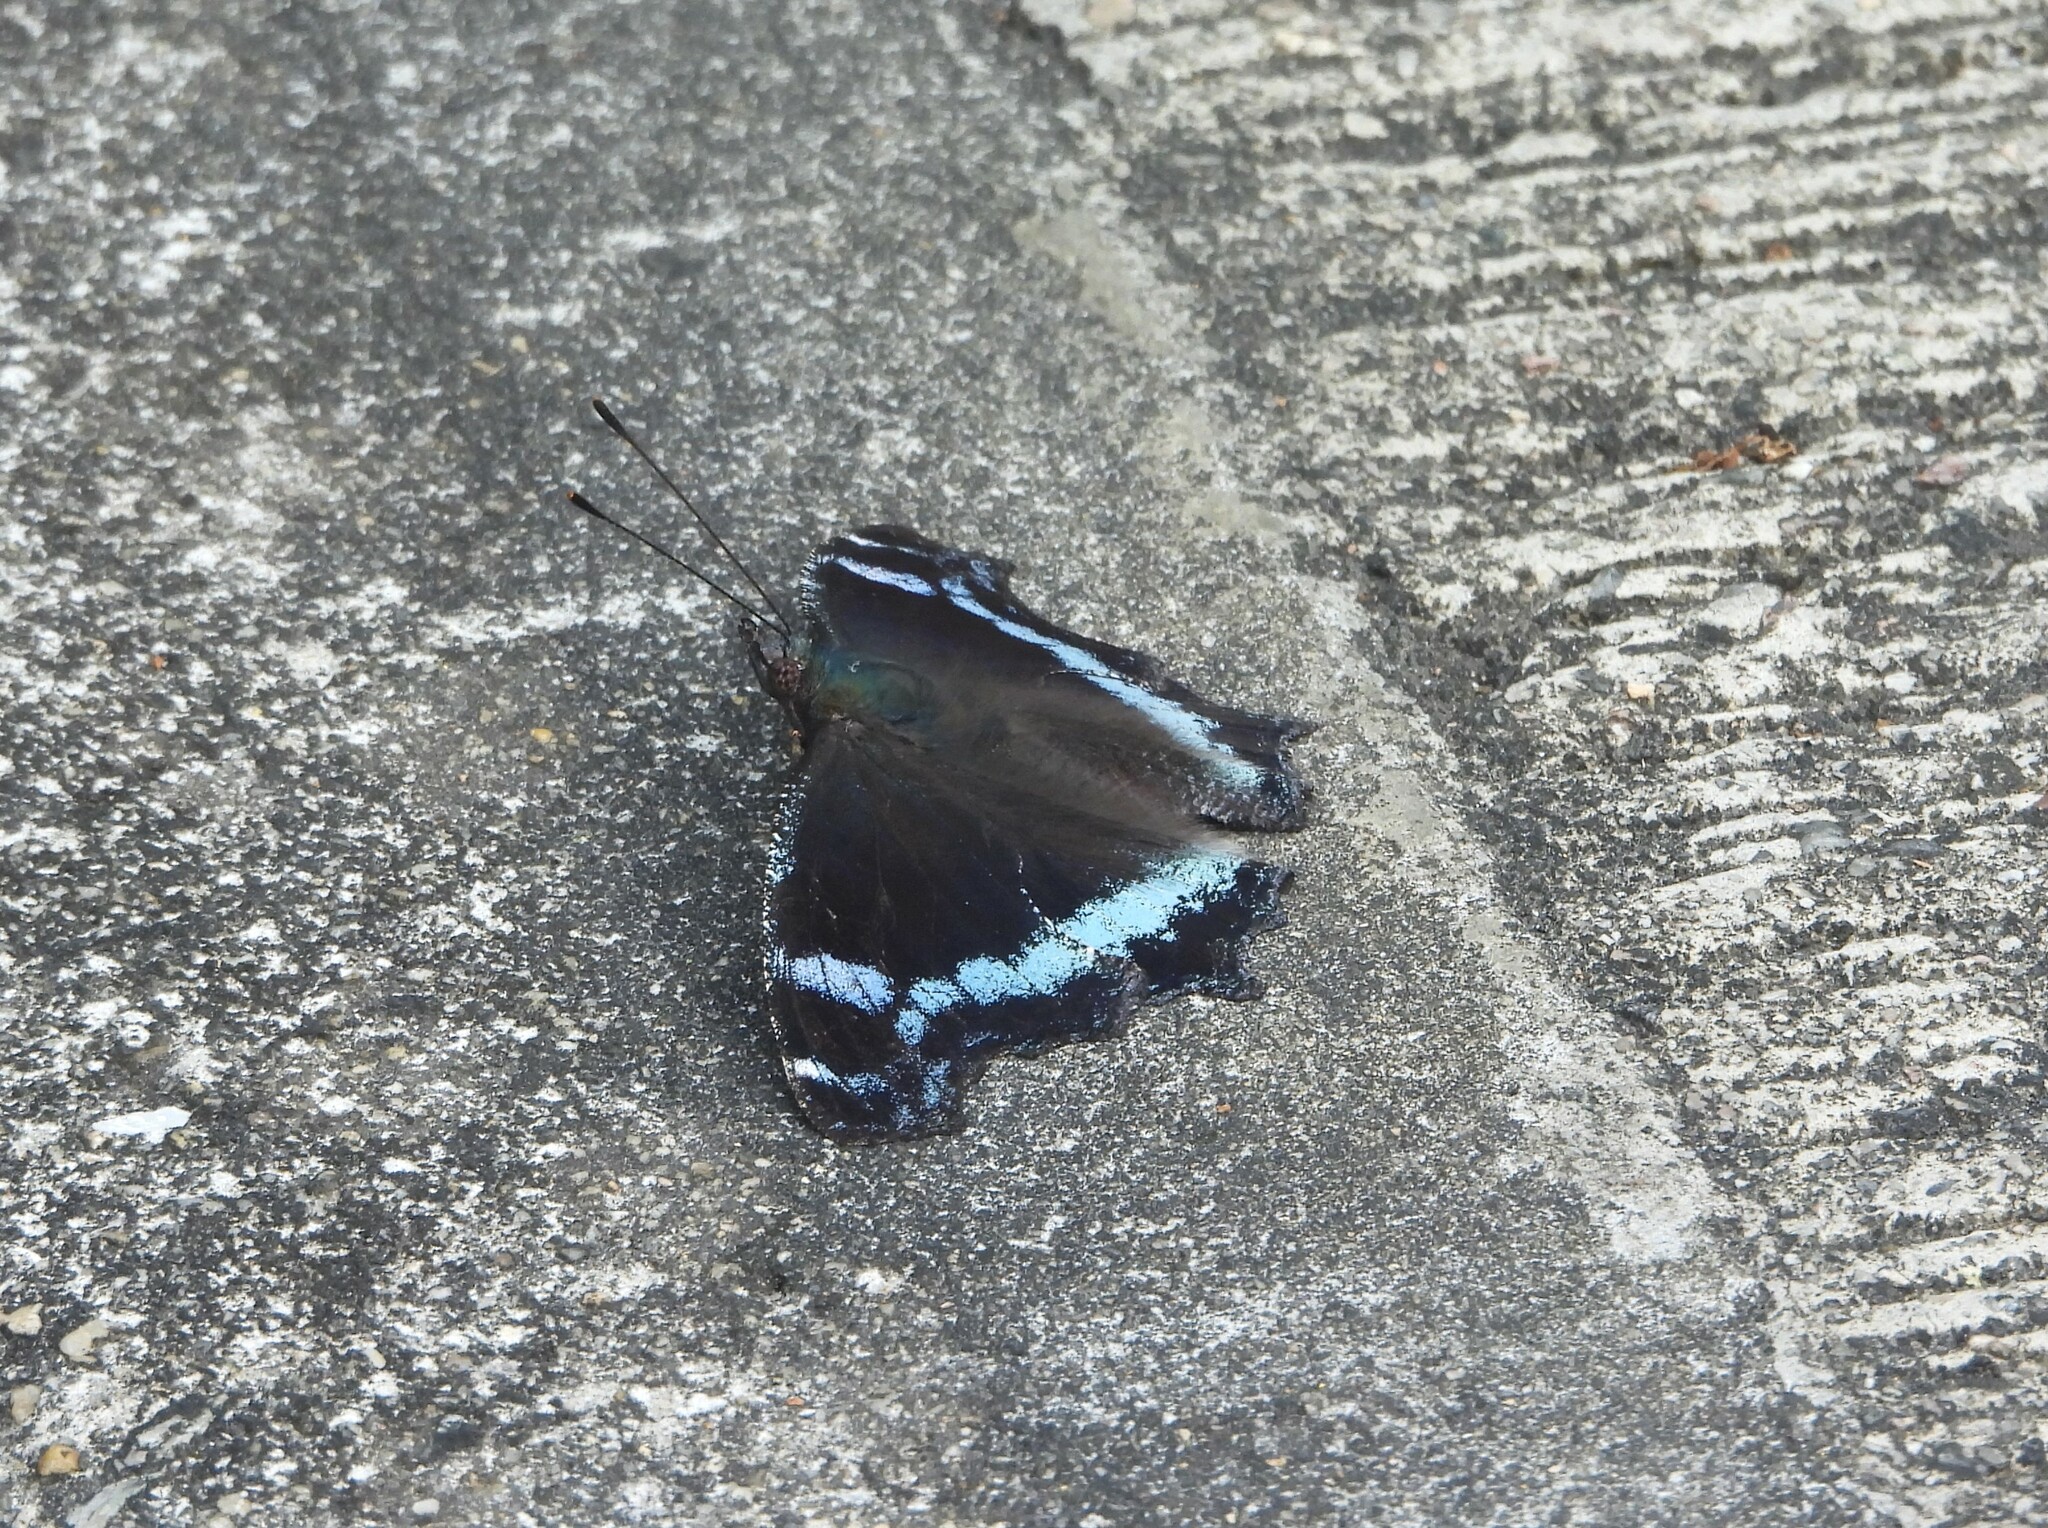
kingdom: Animalia
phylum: Arthropoda
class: Insecta
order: Lepidoptera
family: Nymphalidae
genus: Vanessa
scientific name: Vanessa Kaniska canace
